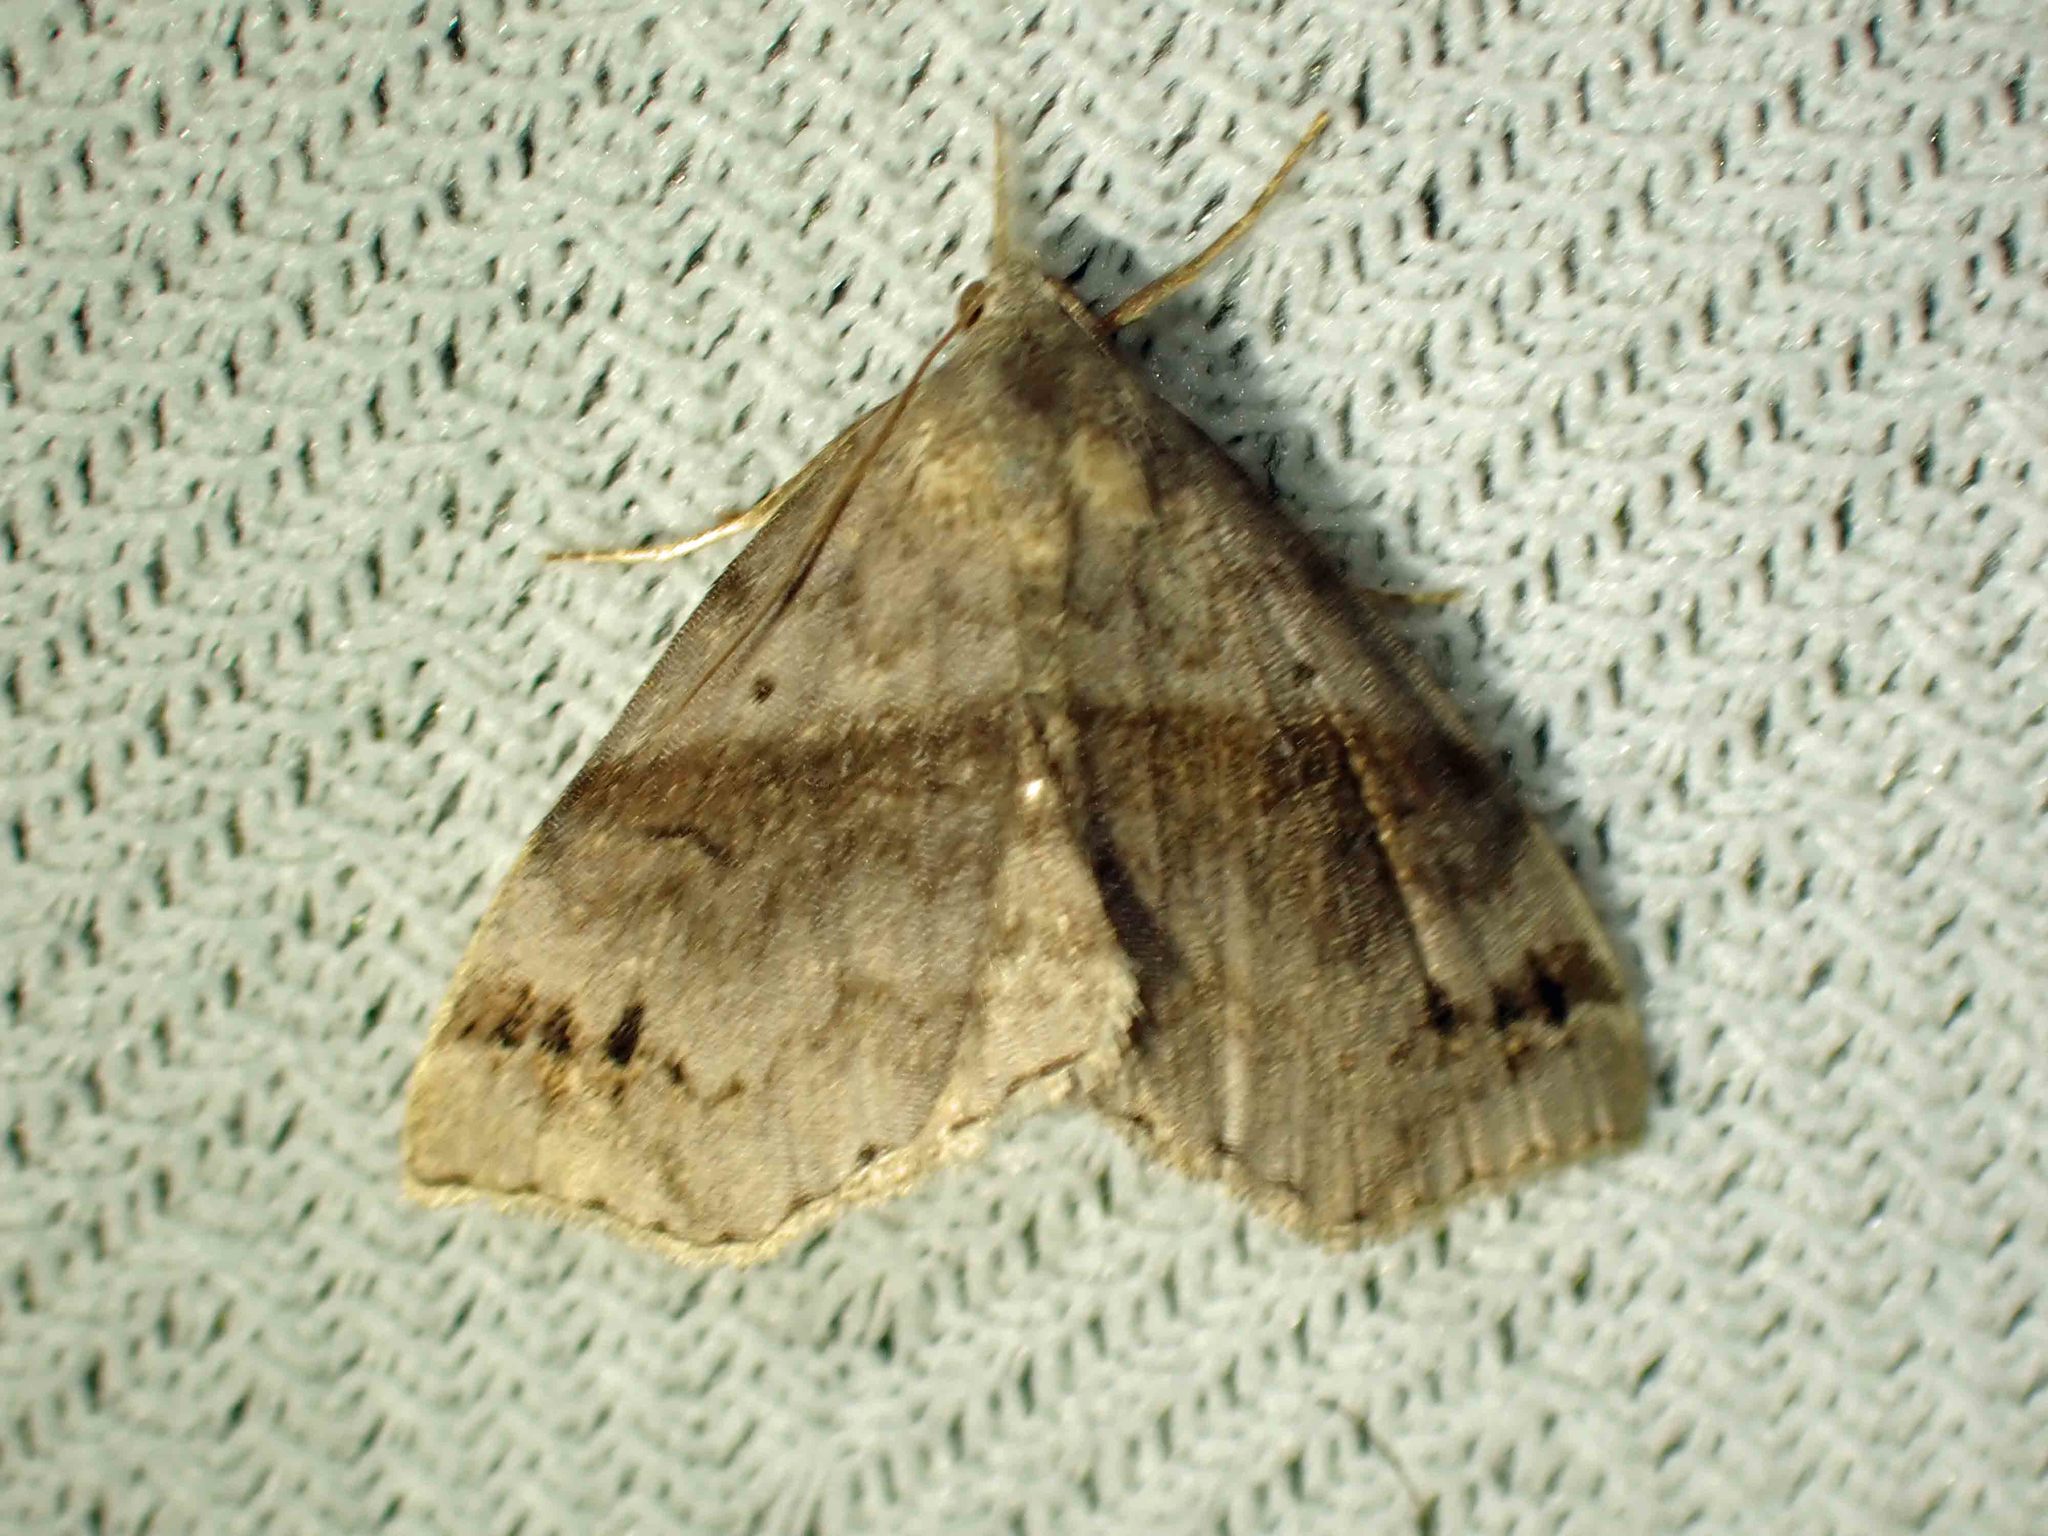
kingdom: Animalia
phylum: Arthropoda
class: Insecta
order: Lepidoptera
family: Erebidae
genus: Spargaloma
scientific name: Spargaloma sexpunctata
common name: Six-spotted gray
